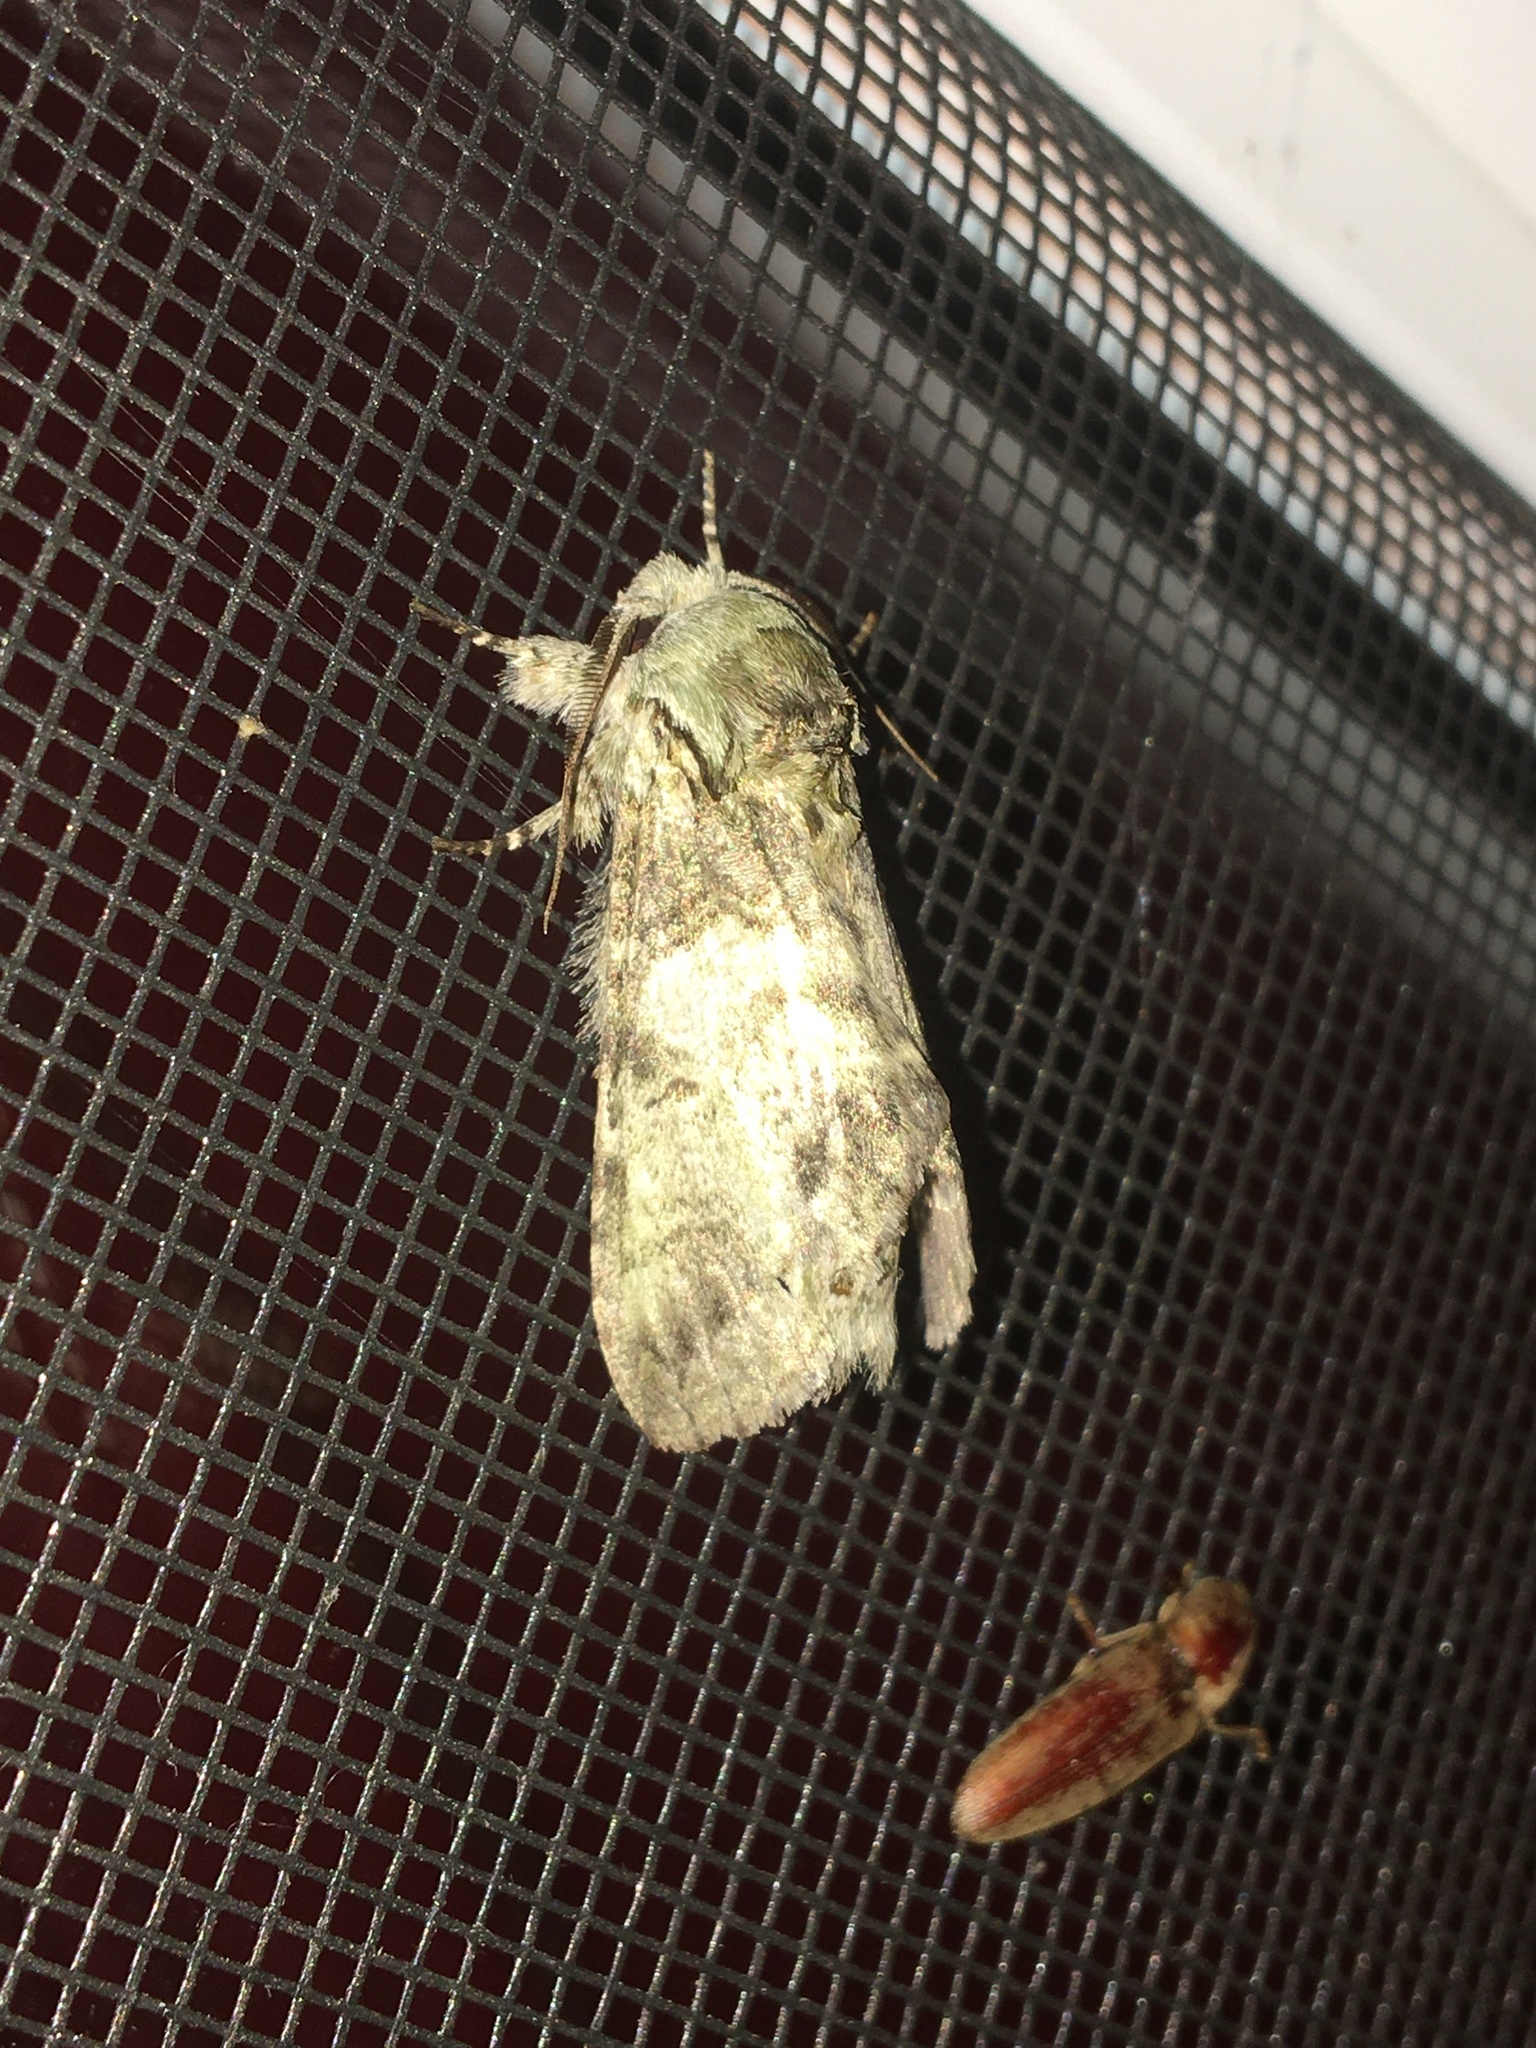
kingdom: Animalia
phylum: Arthropoda
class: Insecta
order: Lepidoptera
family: Notodontidae
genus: Macrurocampa
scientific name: Macrurocampa marthesia
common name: Mottled prominent
